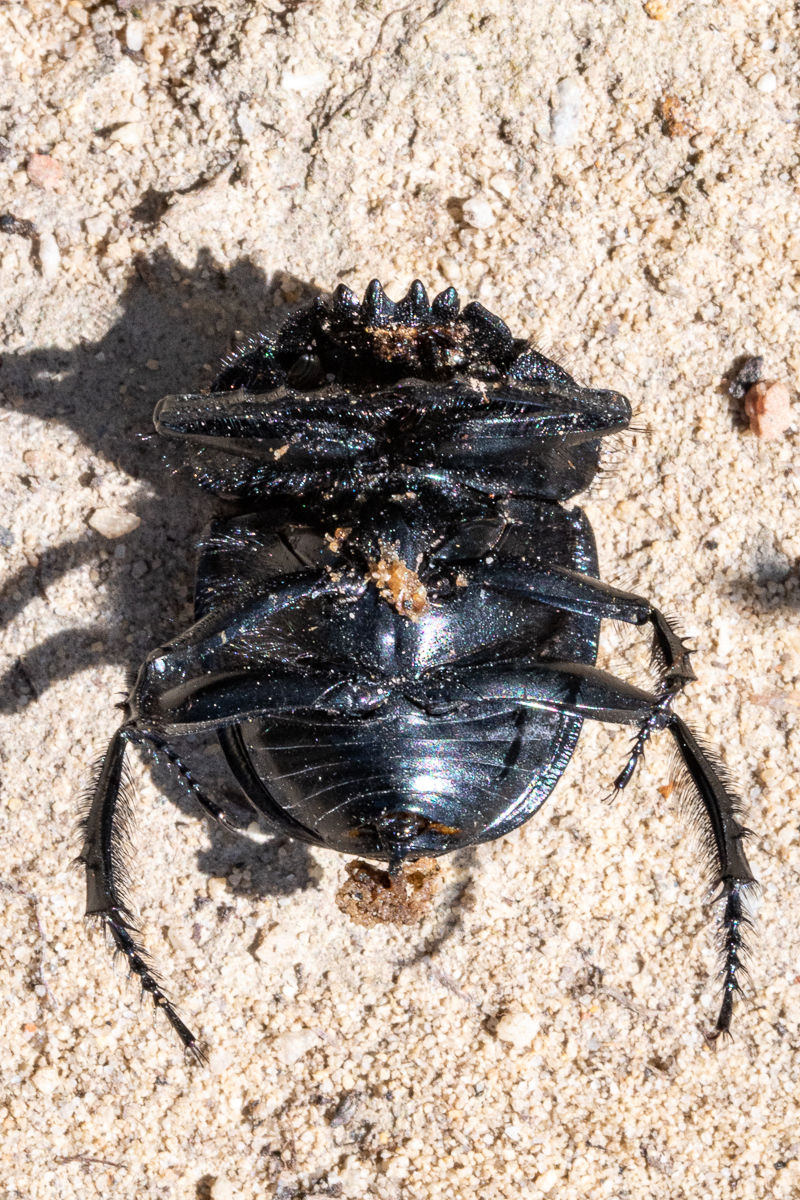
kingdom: Animalia
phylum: Arthropoda
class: Insecta
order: Coleoptera
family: Scarabaeidae
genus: Scarabaeus
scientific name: Scarabaeus convexus
